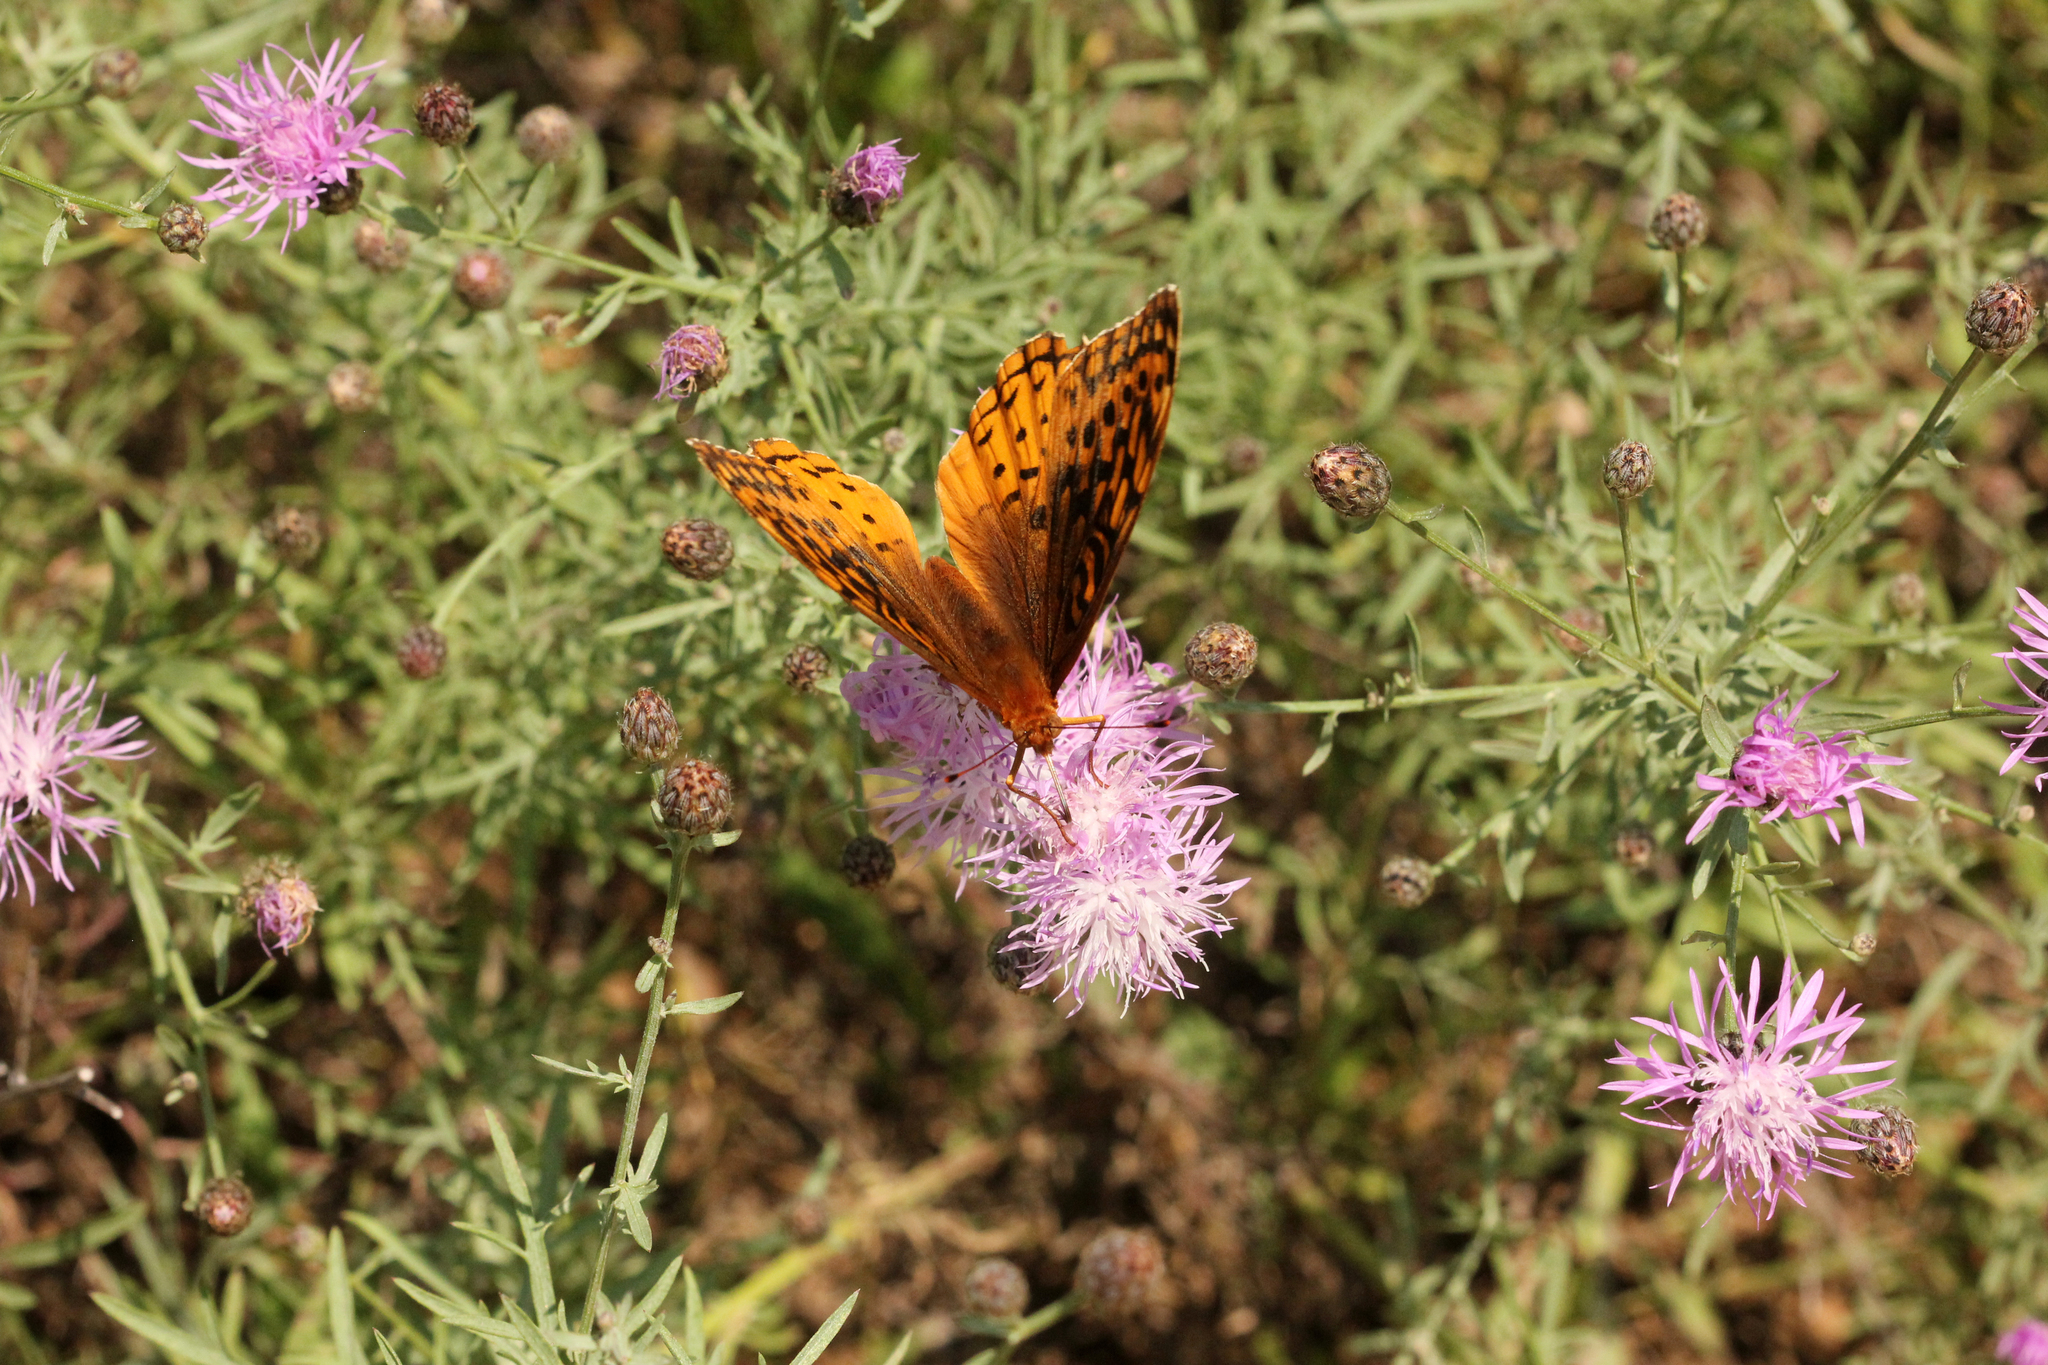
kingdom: Animalia
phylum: Arthropoda
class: Insecta
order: Lepidoptera
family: Nymphalidae
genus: Speyeria
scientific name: Speyeria cybele
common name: Great spangled fritillary
